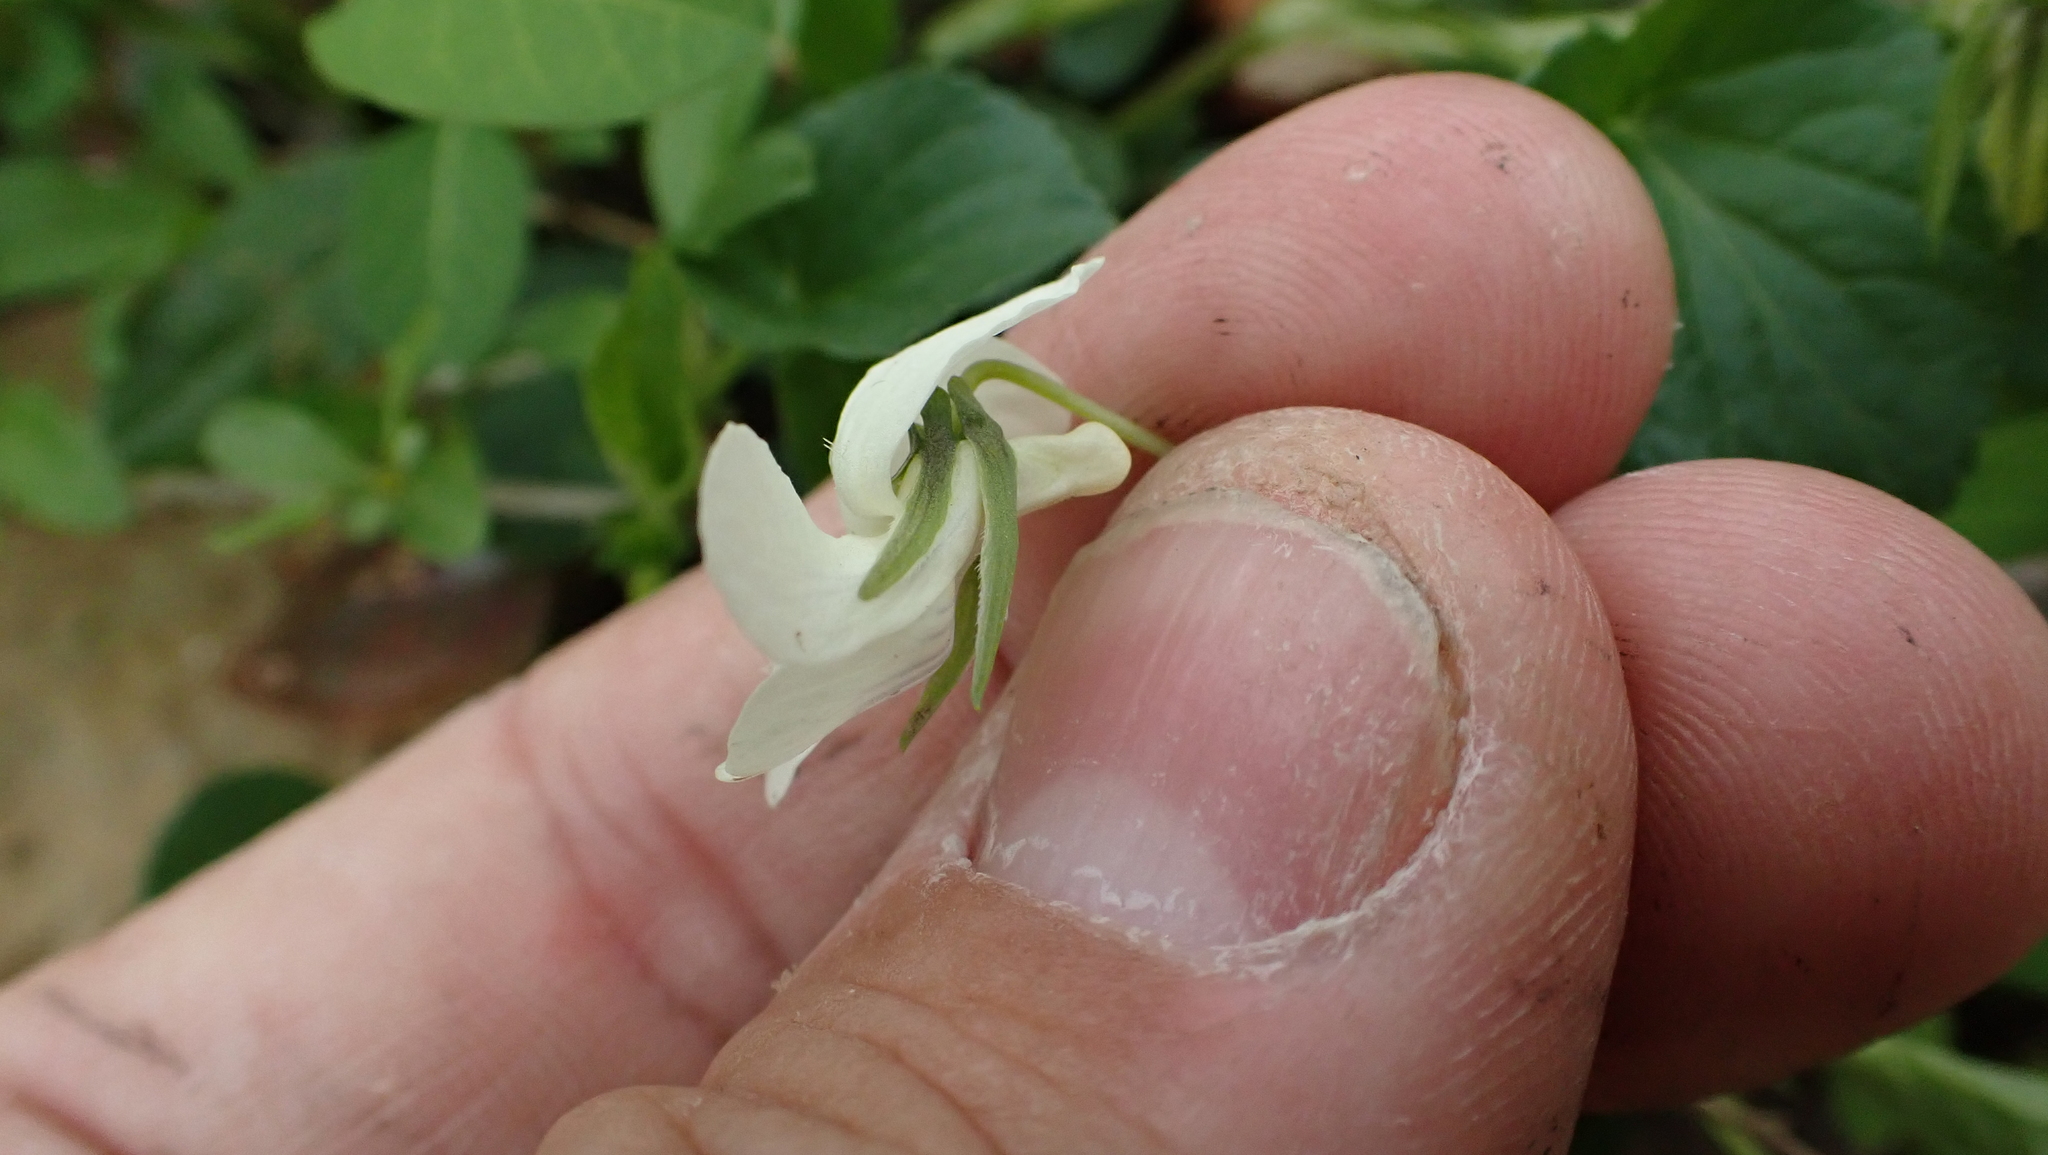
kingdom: Plantae
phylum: Tracheophyta
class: Magnoliopsida
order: Malpighiales
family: Violaceae
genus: Viola
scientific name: Viola striata
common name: Cream violet
